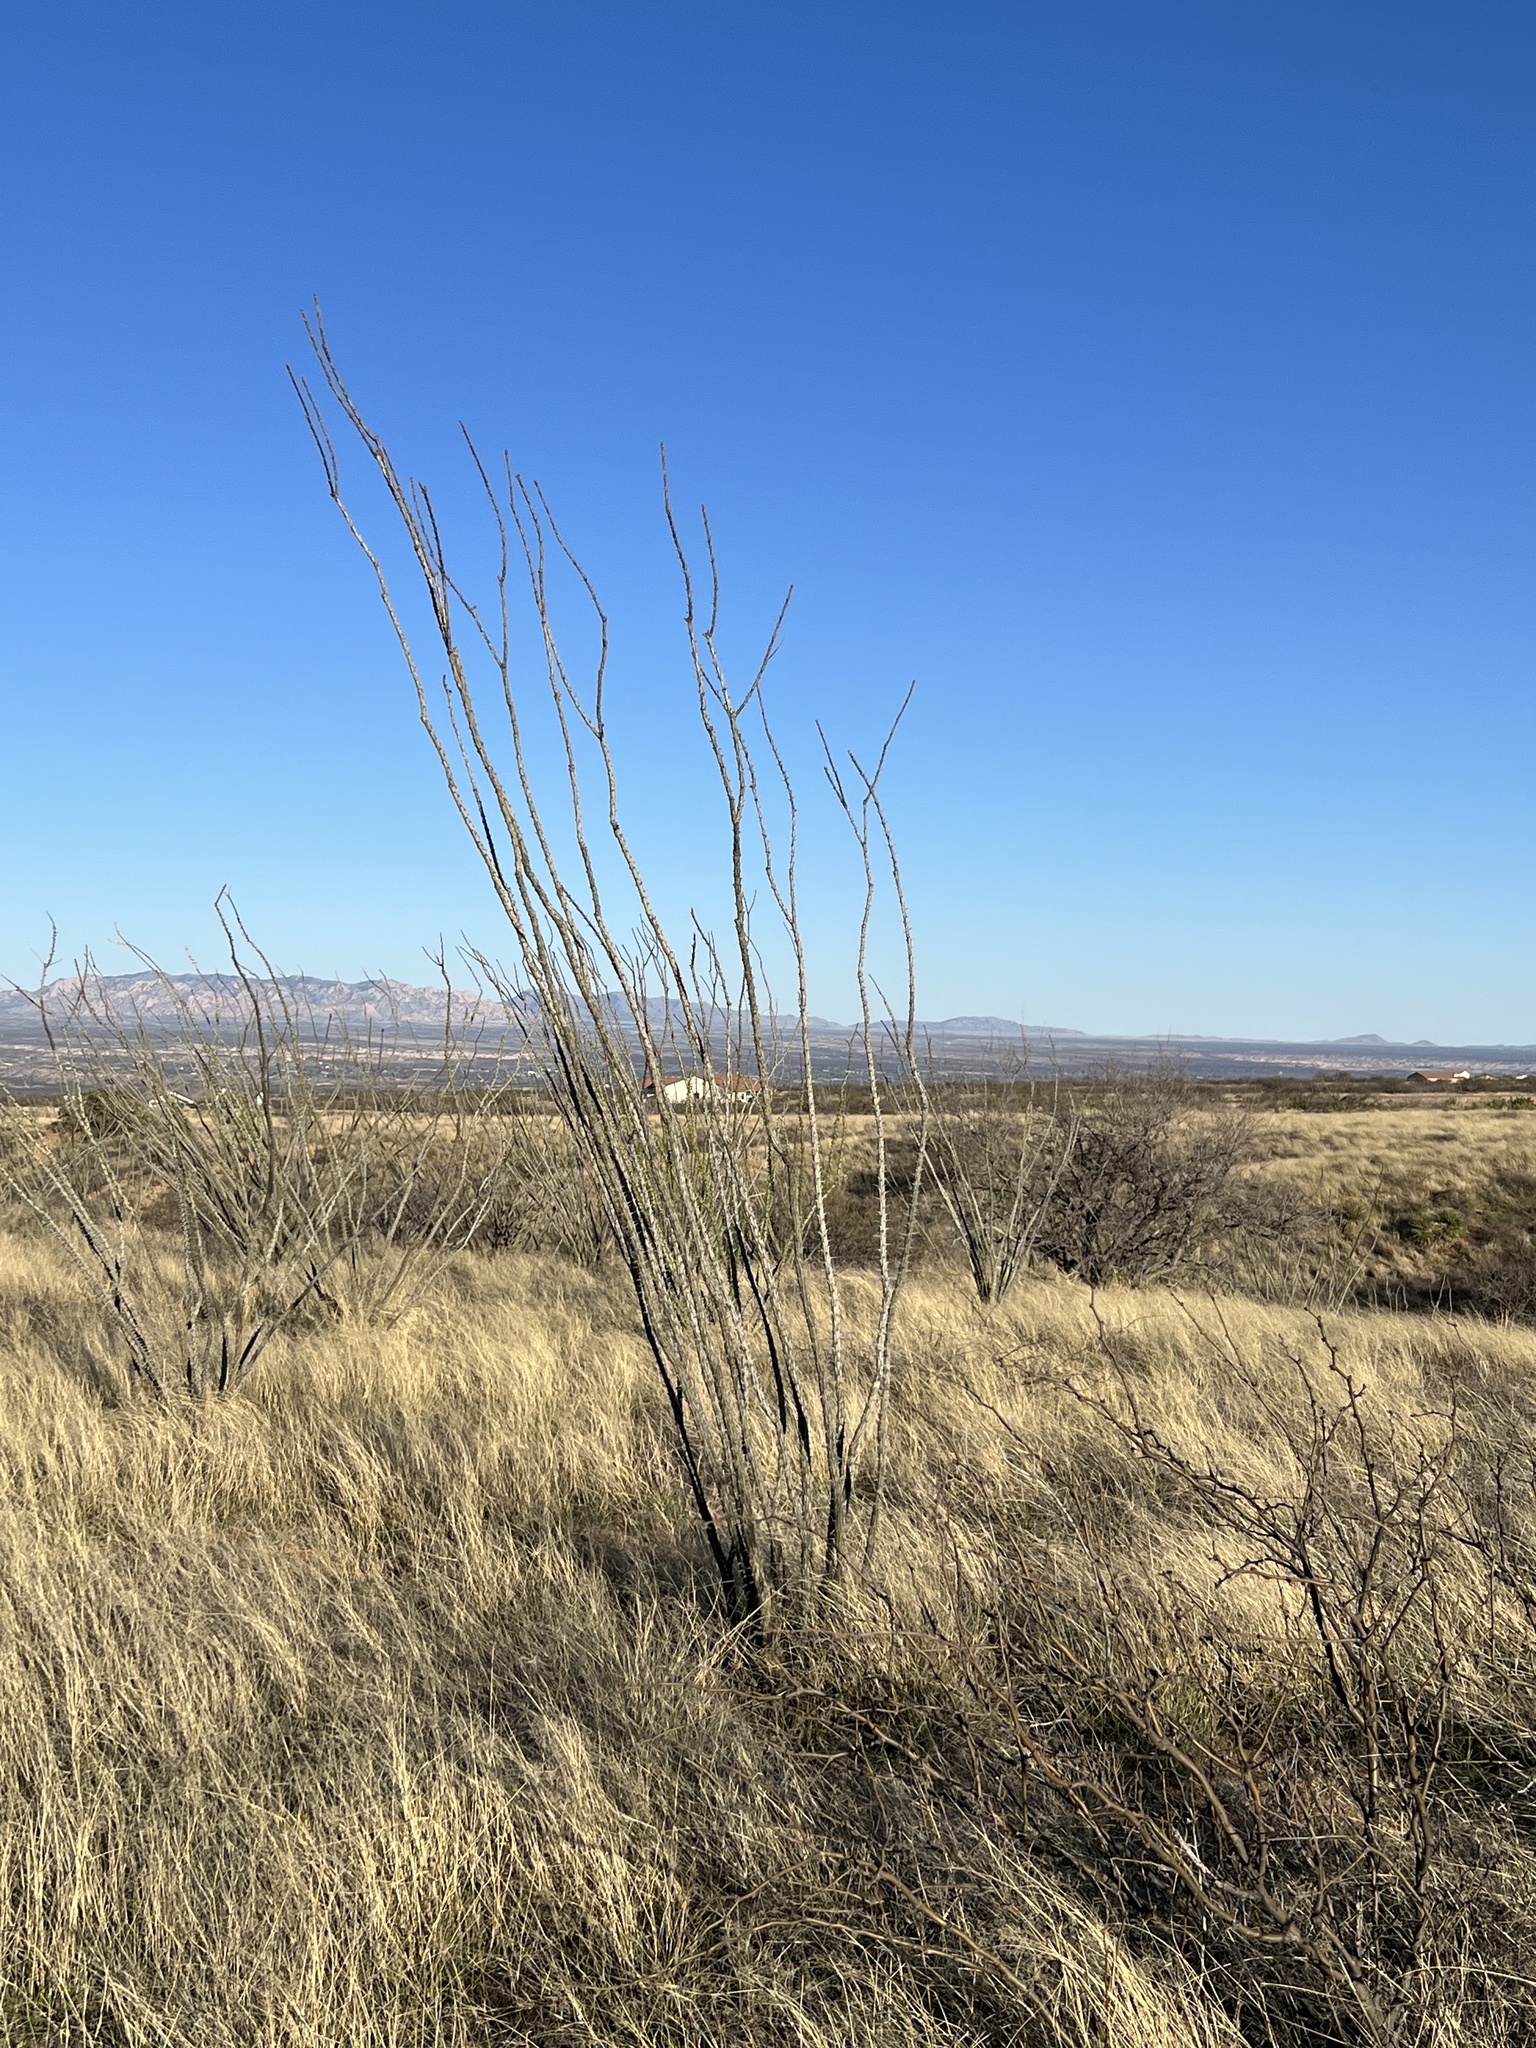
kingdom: Plantae
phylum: Tracheophyta
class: Magnoliopsida
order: Ericales
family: Fouquieriaceae
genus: Fouquieria
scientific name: Fouquieria splendens
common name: Vine-cactus
